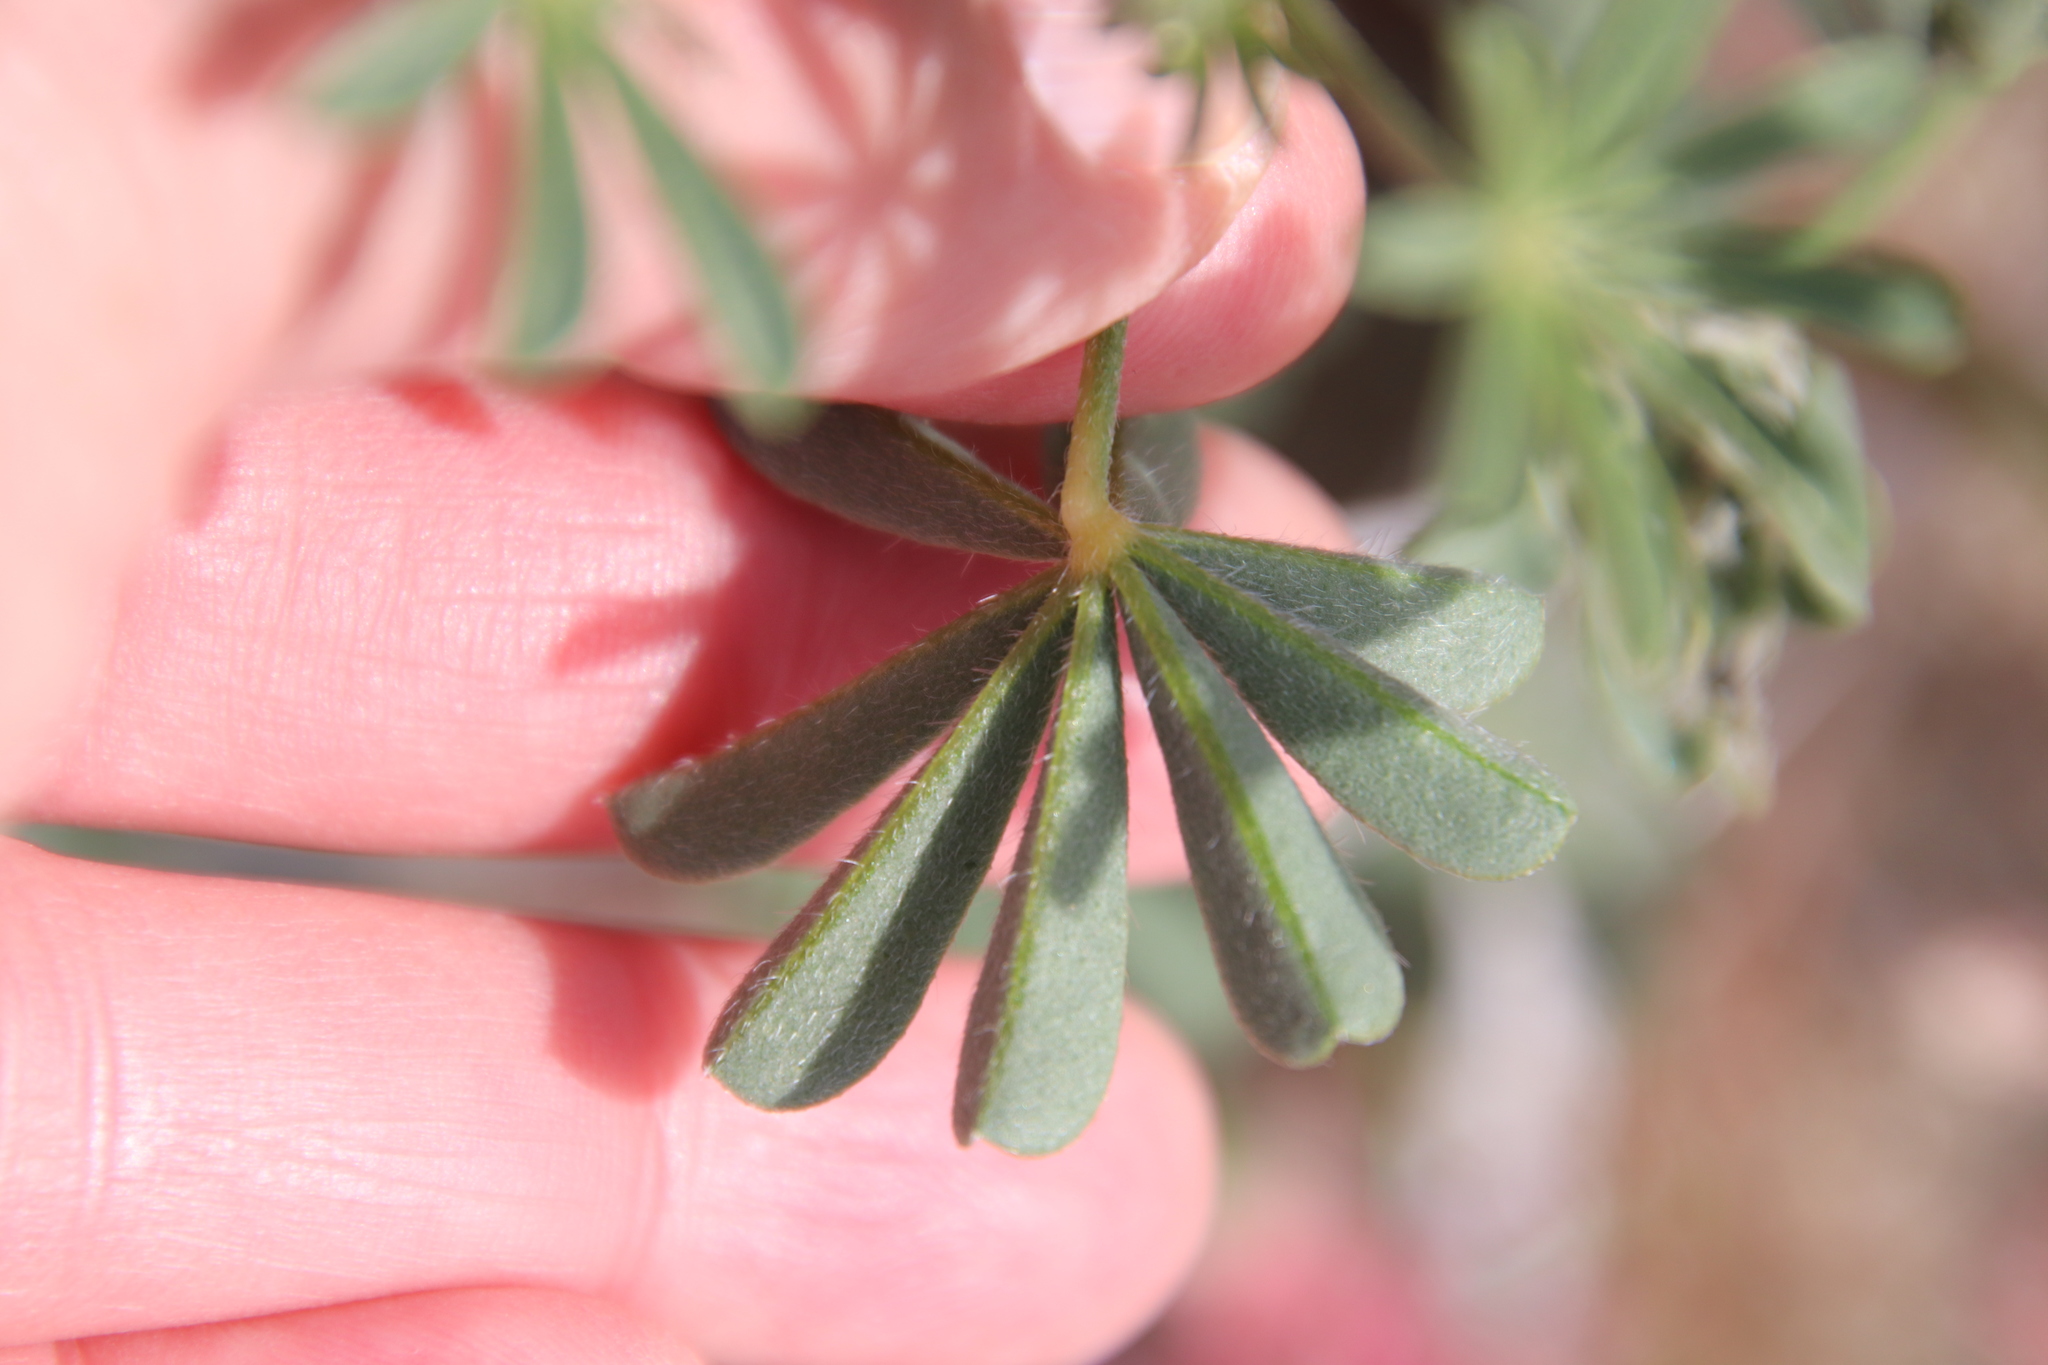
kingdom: Plantae
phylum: Tracheophyta
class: Magnoliopsida
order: Fabales
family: Fabaceae
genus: Lupinus
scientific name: Lupinus arizonicus
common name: Arizona lupine
